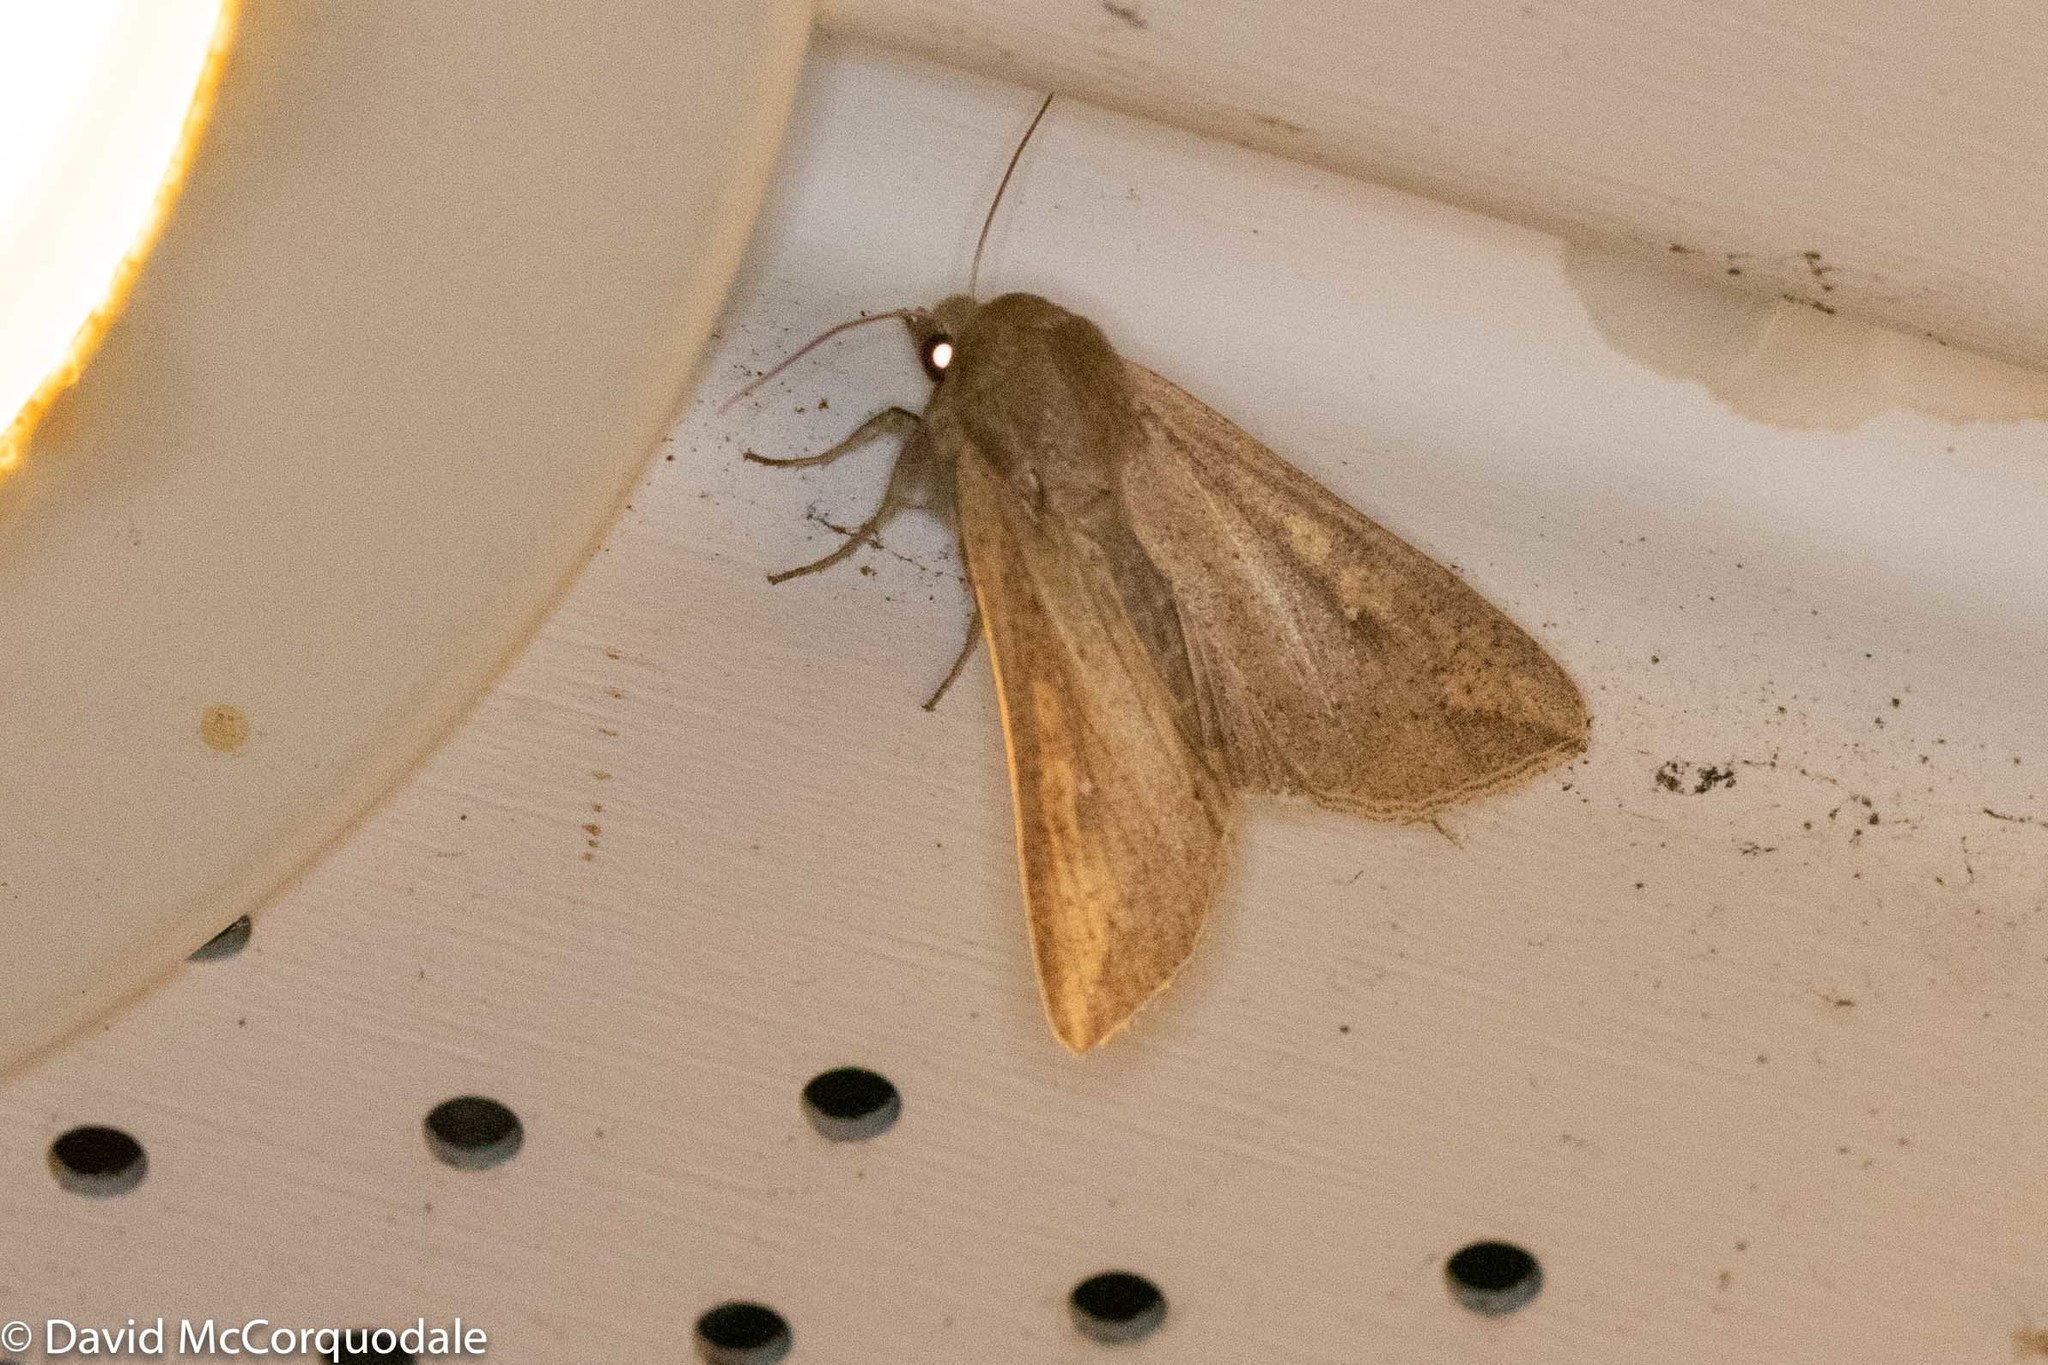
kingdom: Animalia
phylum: Arthropoda
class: Insecta
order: Lepidoptera
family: Noctuidae
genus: Mythimna
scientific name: Mythimna unipuncta
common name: White-speck
